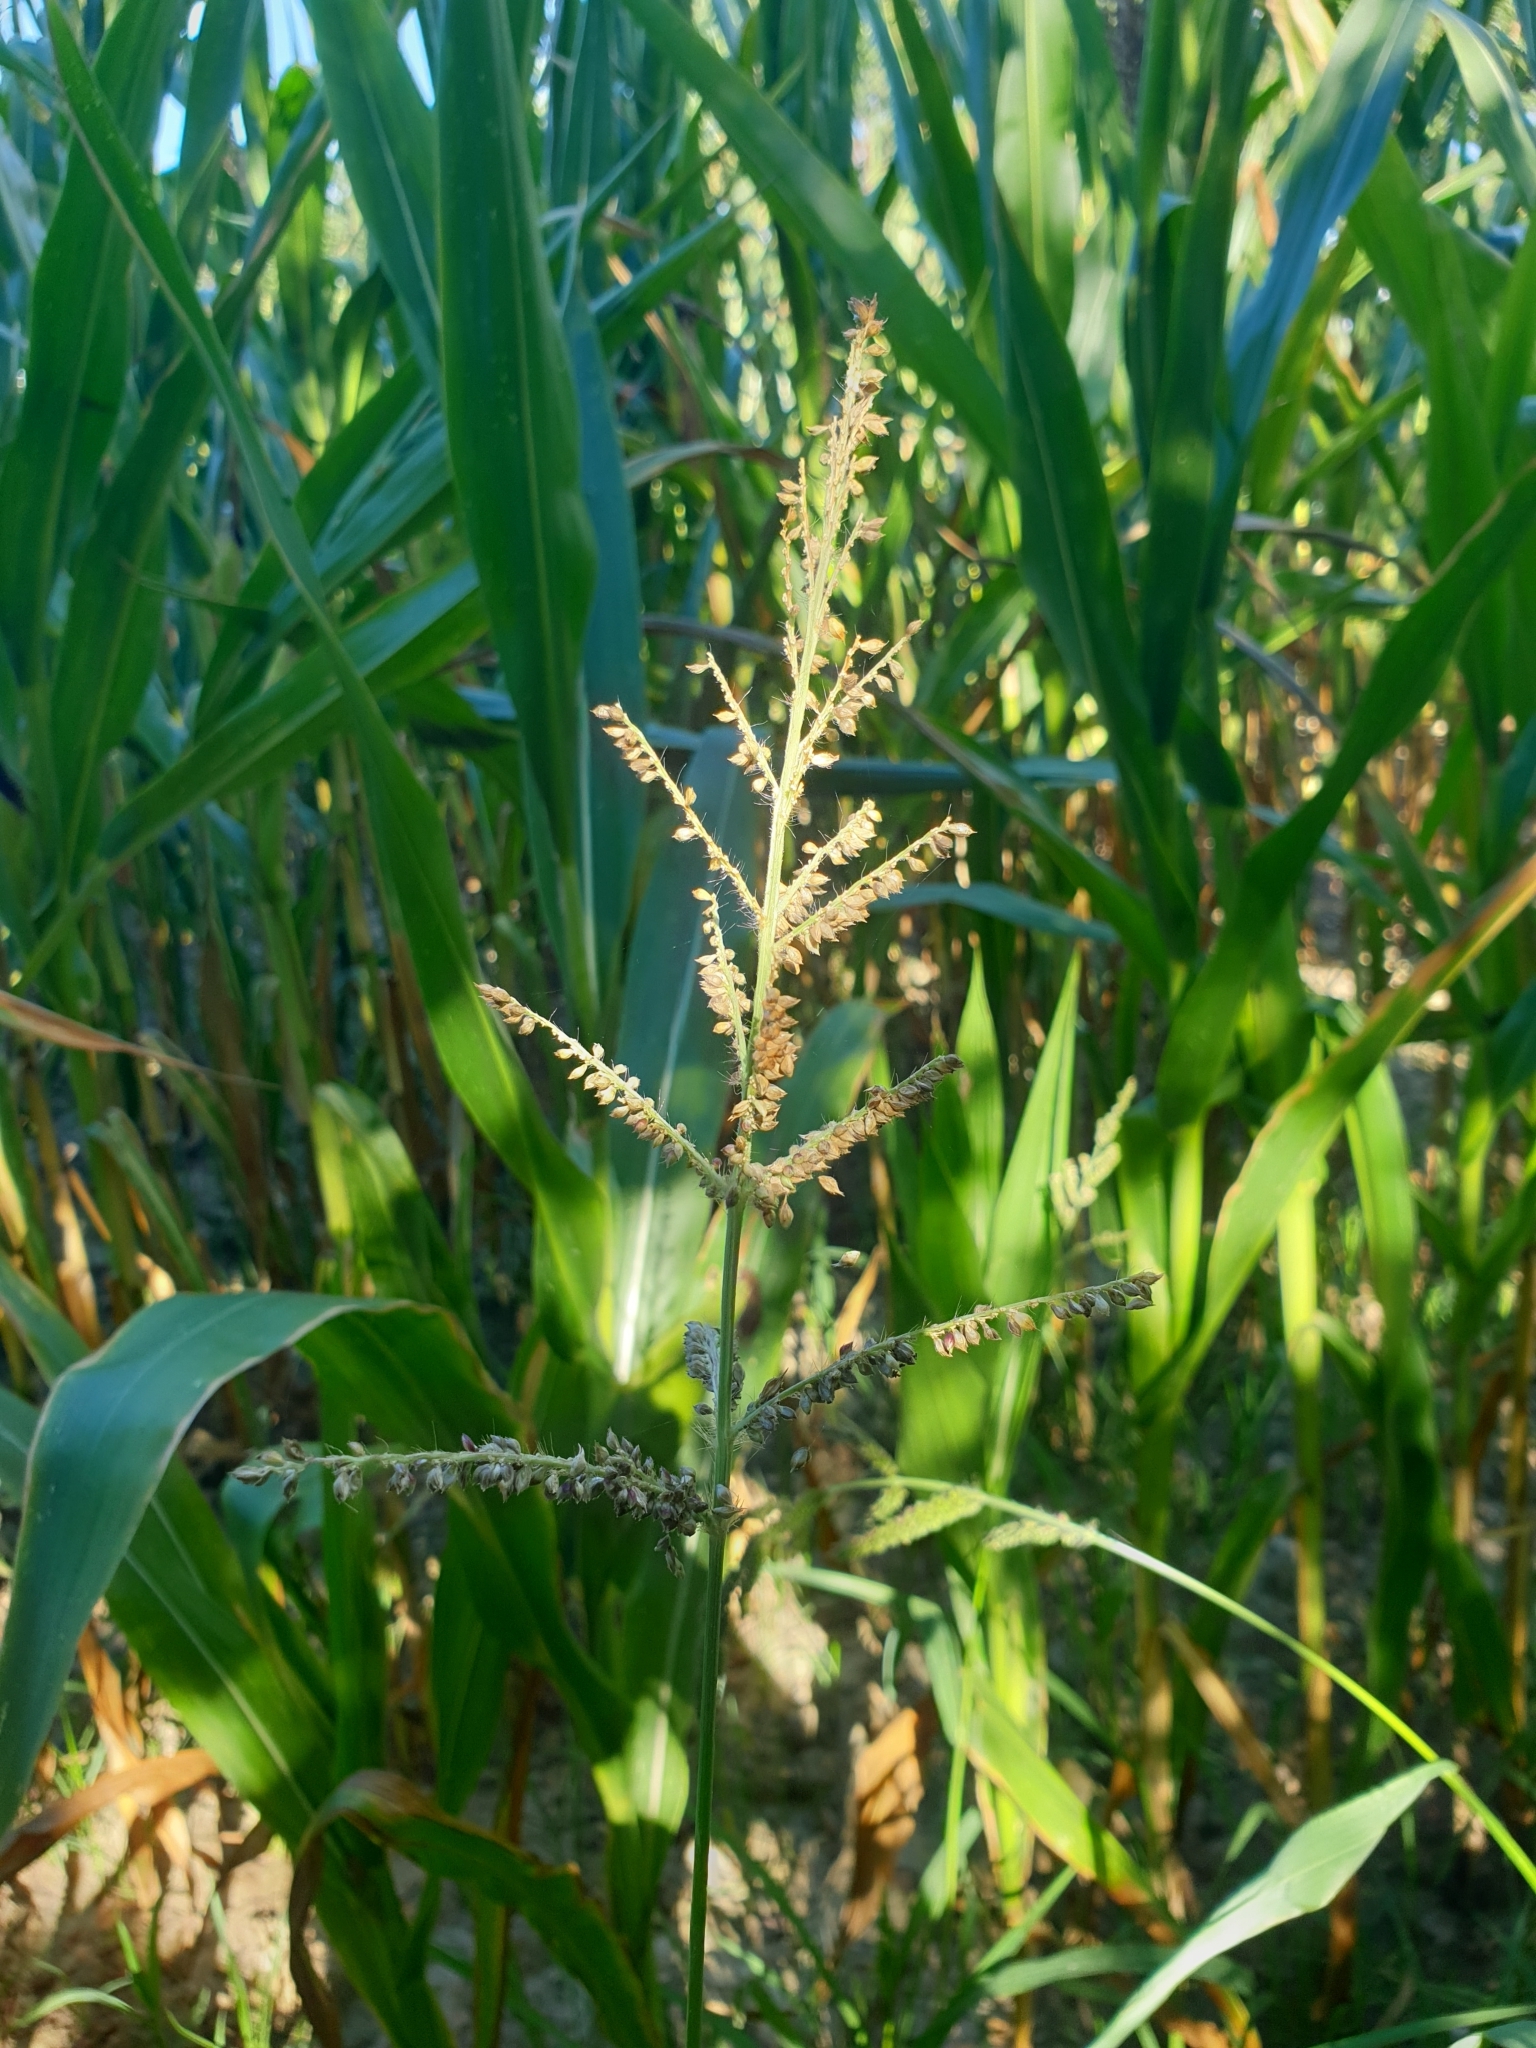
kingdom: Plantae
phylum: Tracheophyta
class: Liliopsida
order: Poales
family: Poaceae
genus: Echinochloa
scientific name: Echinochloa crus-galli
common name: Cockspur
